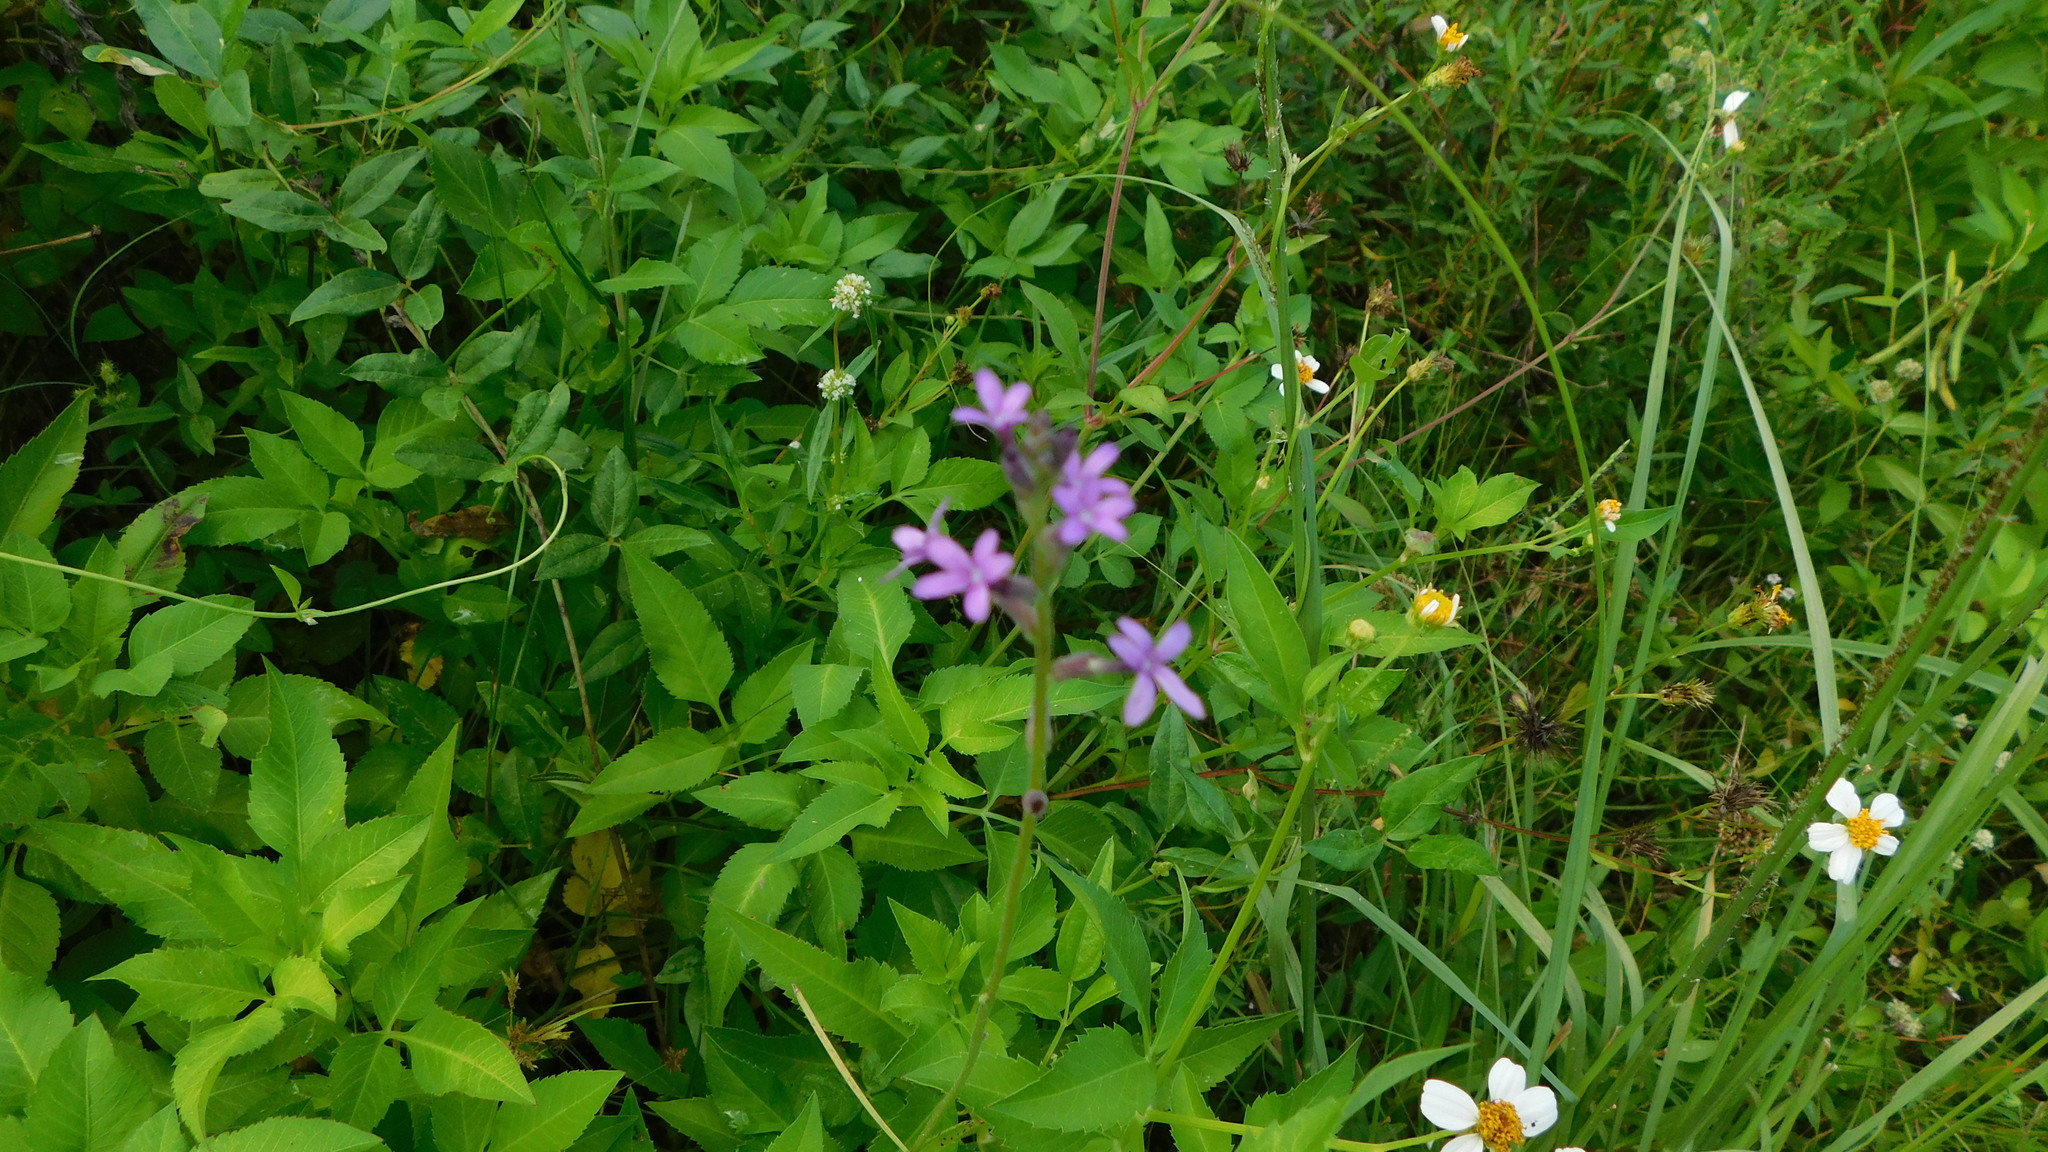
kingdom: Plantae
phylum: Tracheophyta
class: Magnoliopsida
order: Lamiales
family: Orobanchaceae
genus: Buchnera
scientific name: Buchnera floridana
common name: Florida bluehearts
